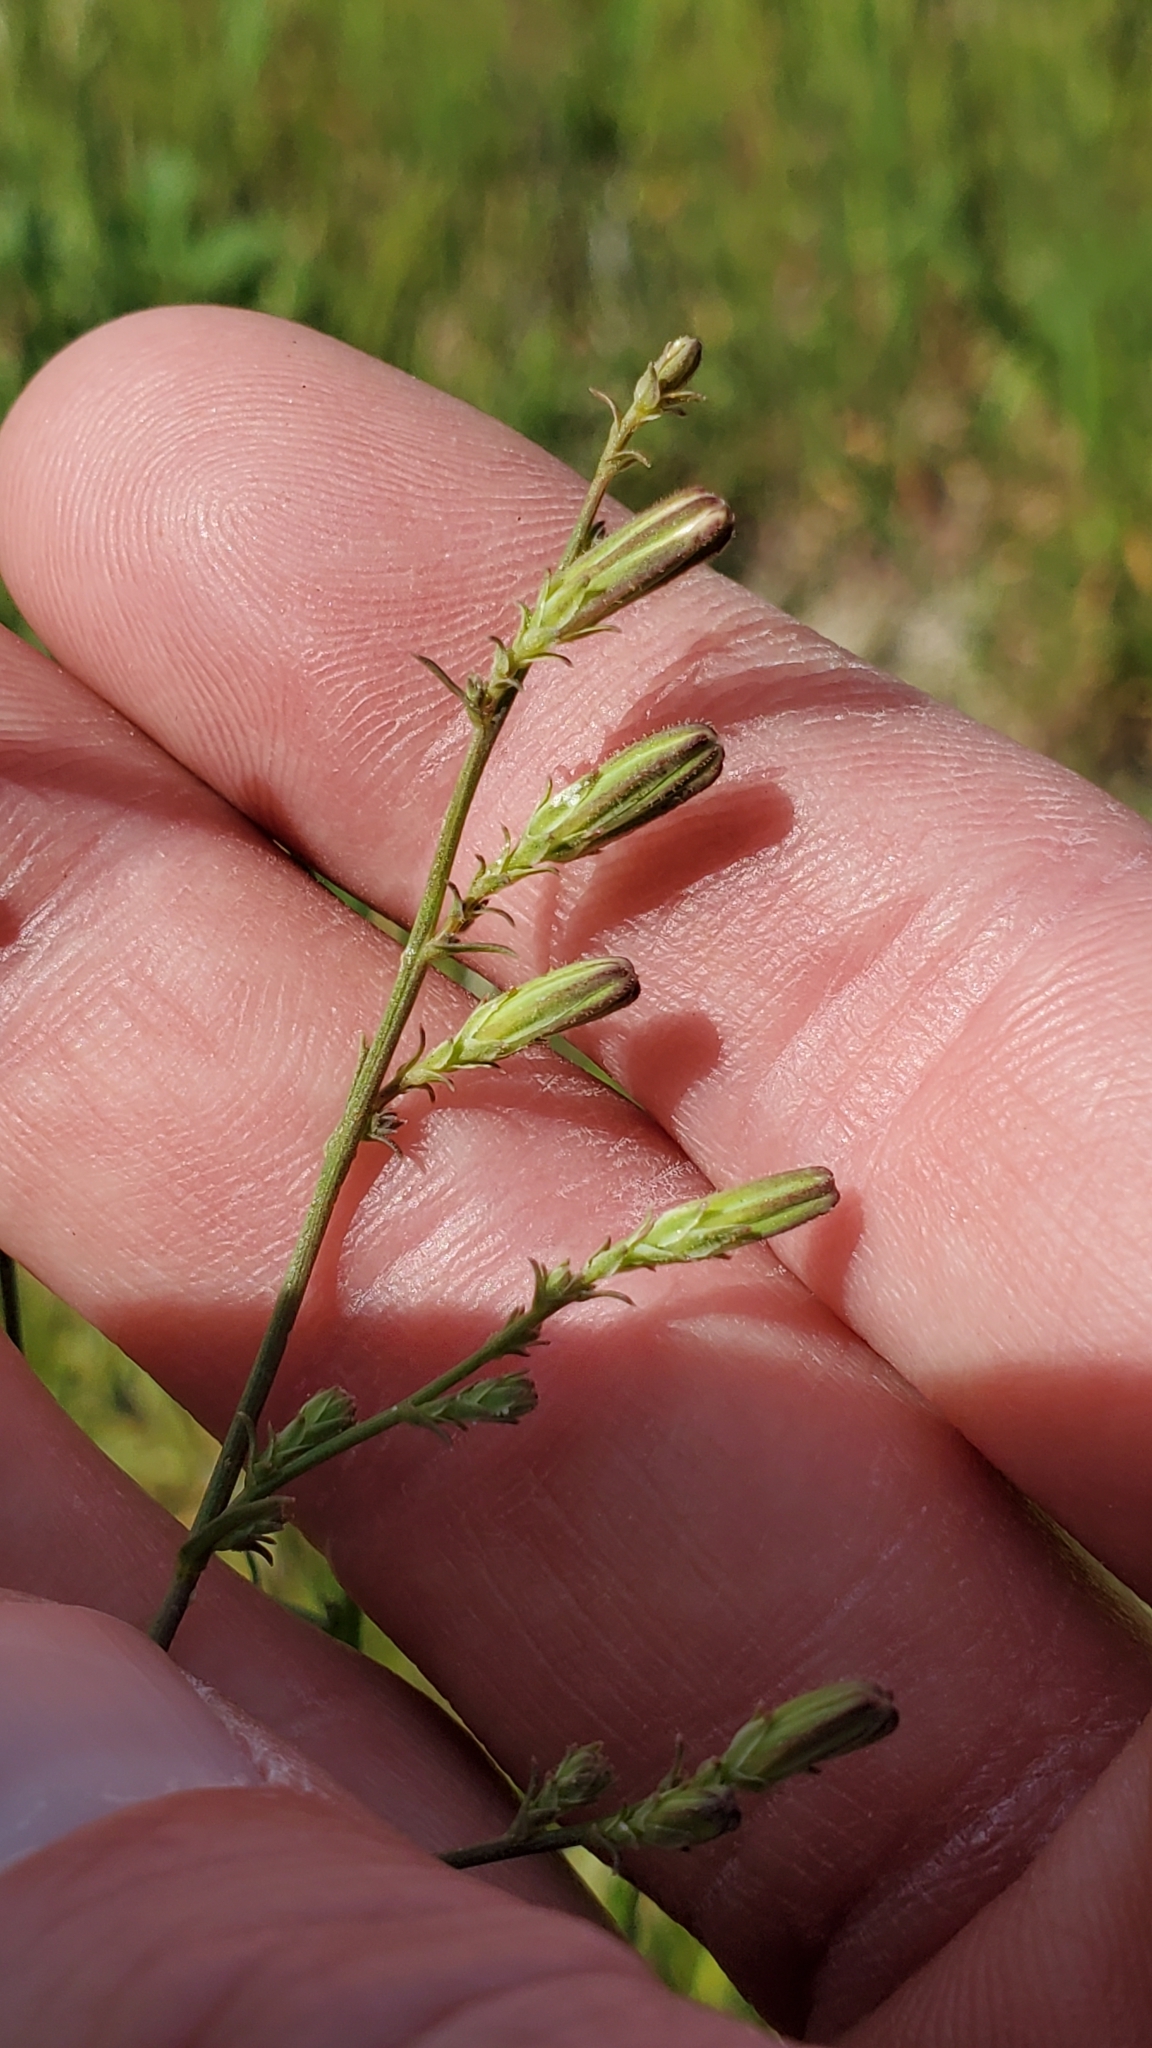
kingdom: Plantae
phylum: Tracheophyta
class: Magnoliopsida
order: Asterales
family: Asteraceae
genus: Stephanomeria
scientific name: Stephanomeria exigua
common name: Small wirelettuce
